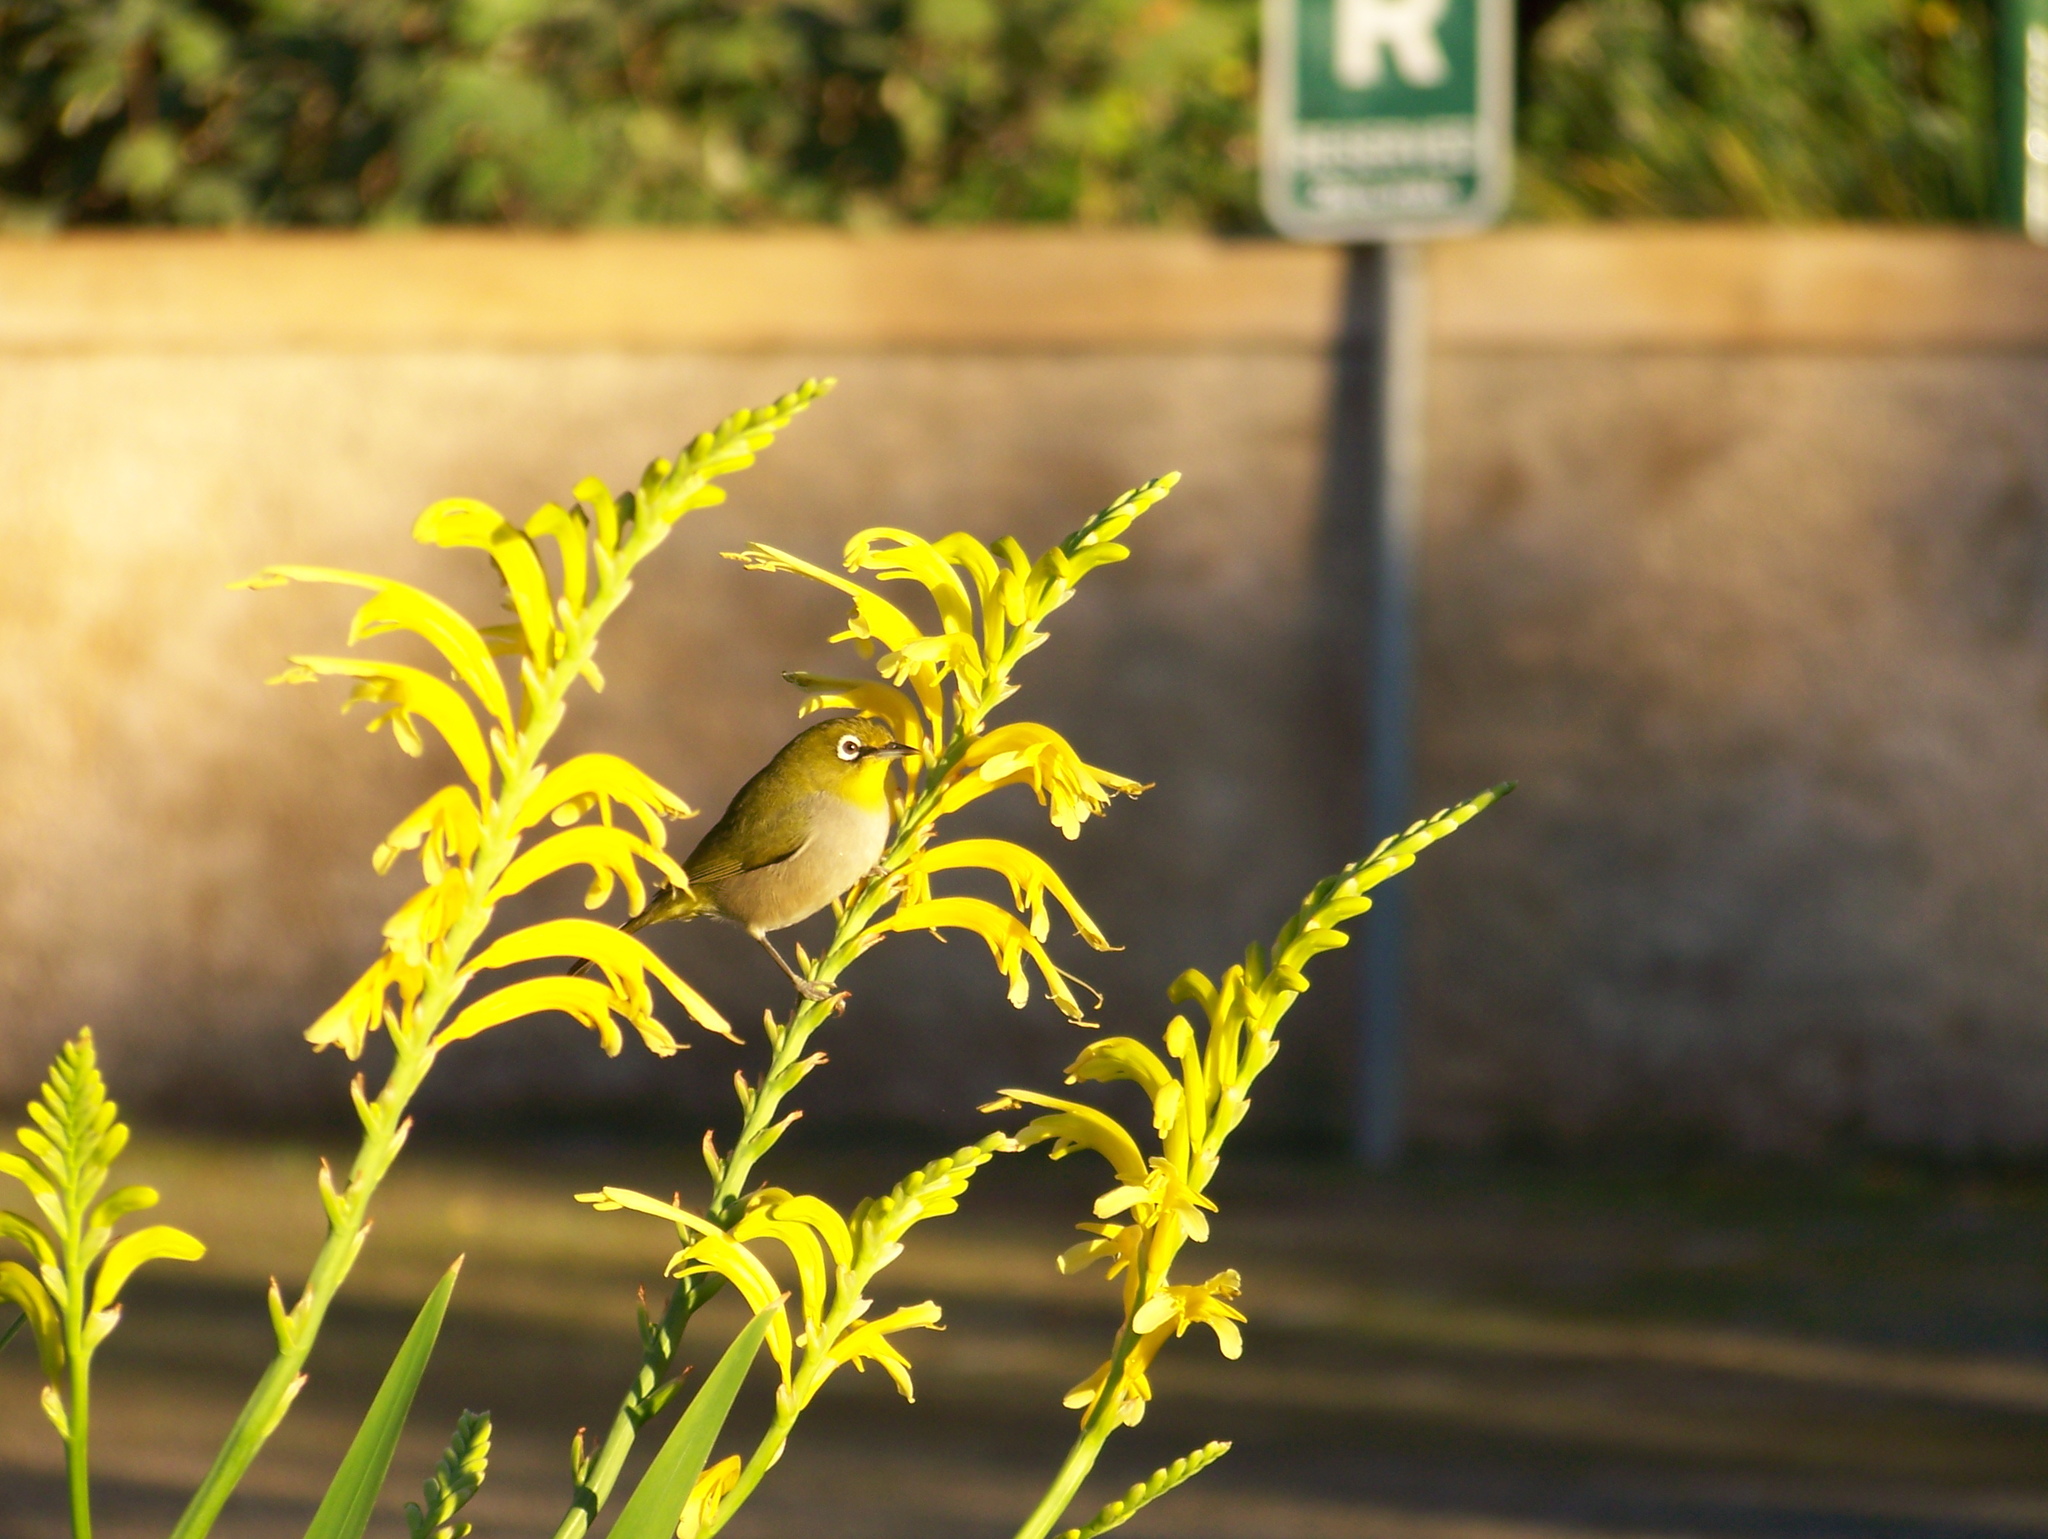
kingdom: Animalia
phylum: Chordata
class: Aves
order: Passeriformes
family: Zosteropidae
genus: Zosterops
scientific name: Zosterops virens
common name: Cape white-eye
